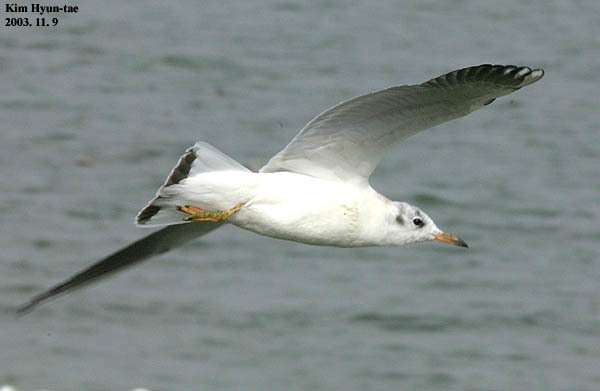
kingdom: Animalia
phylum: Chordata
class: Aves
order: Charadriiformes
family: Laridae
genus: Chroicocephalus
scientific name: Chroicocephalus ridibundus
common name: Black-headed gull
